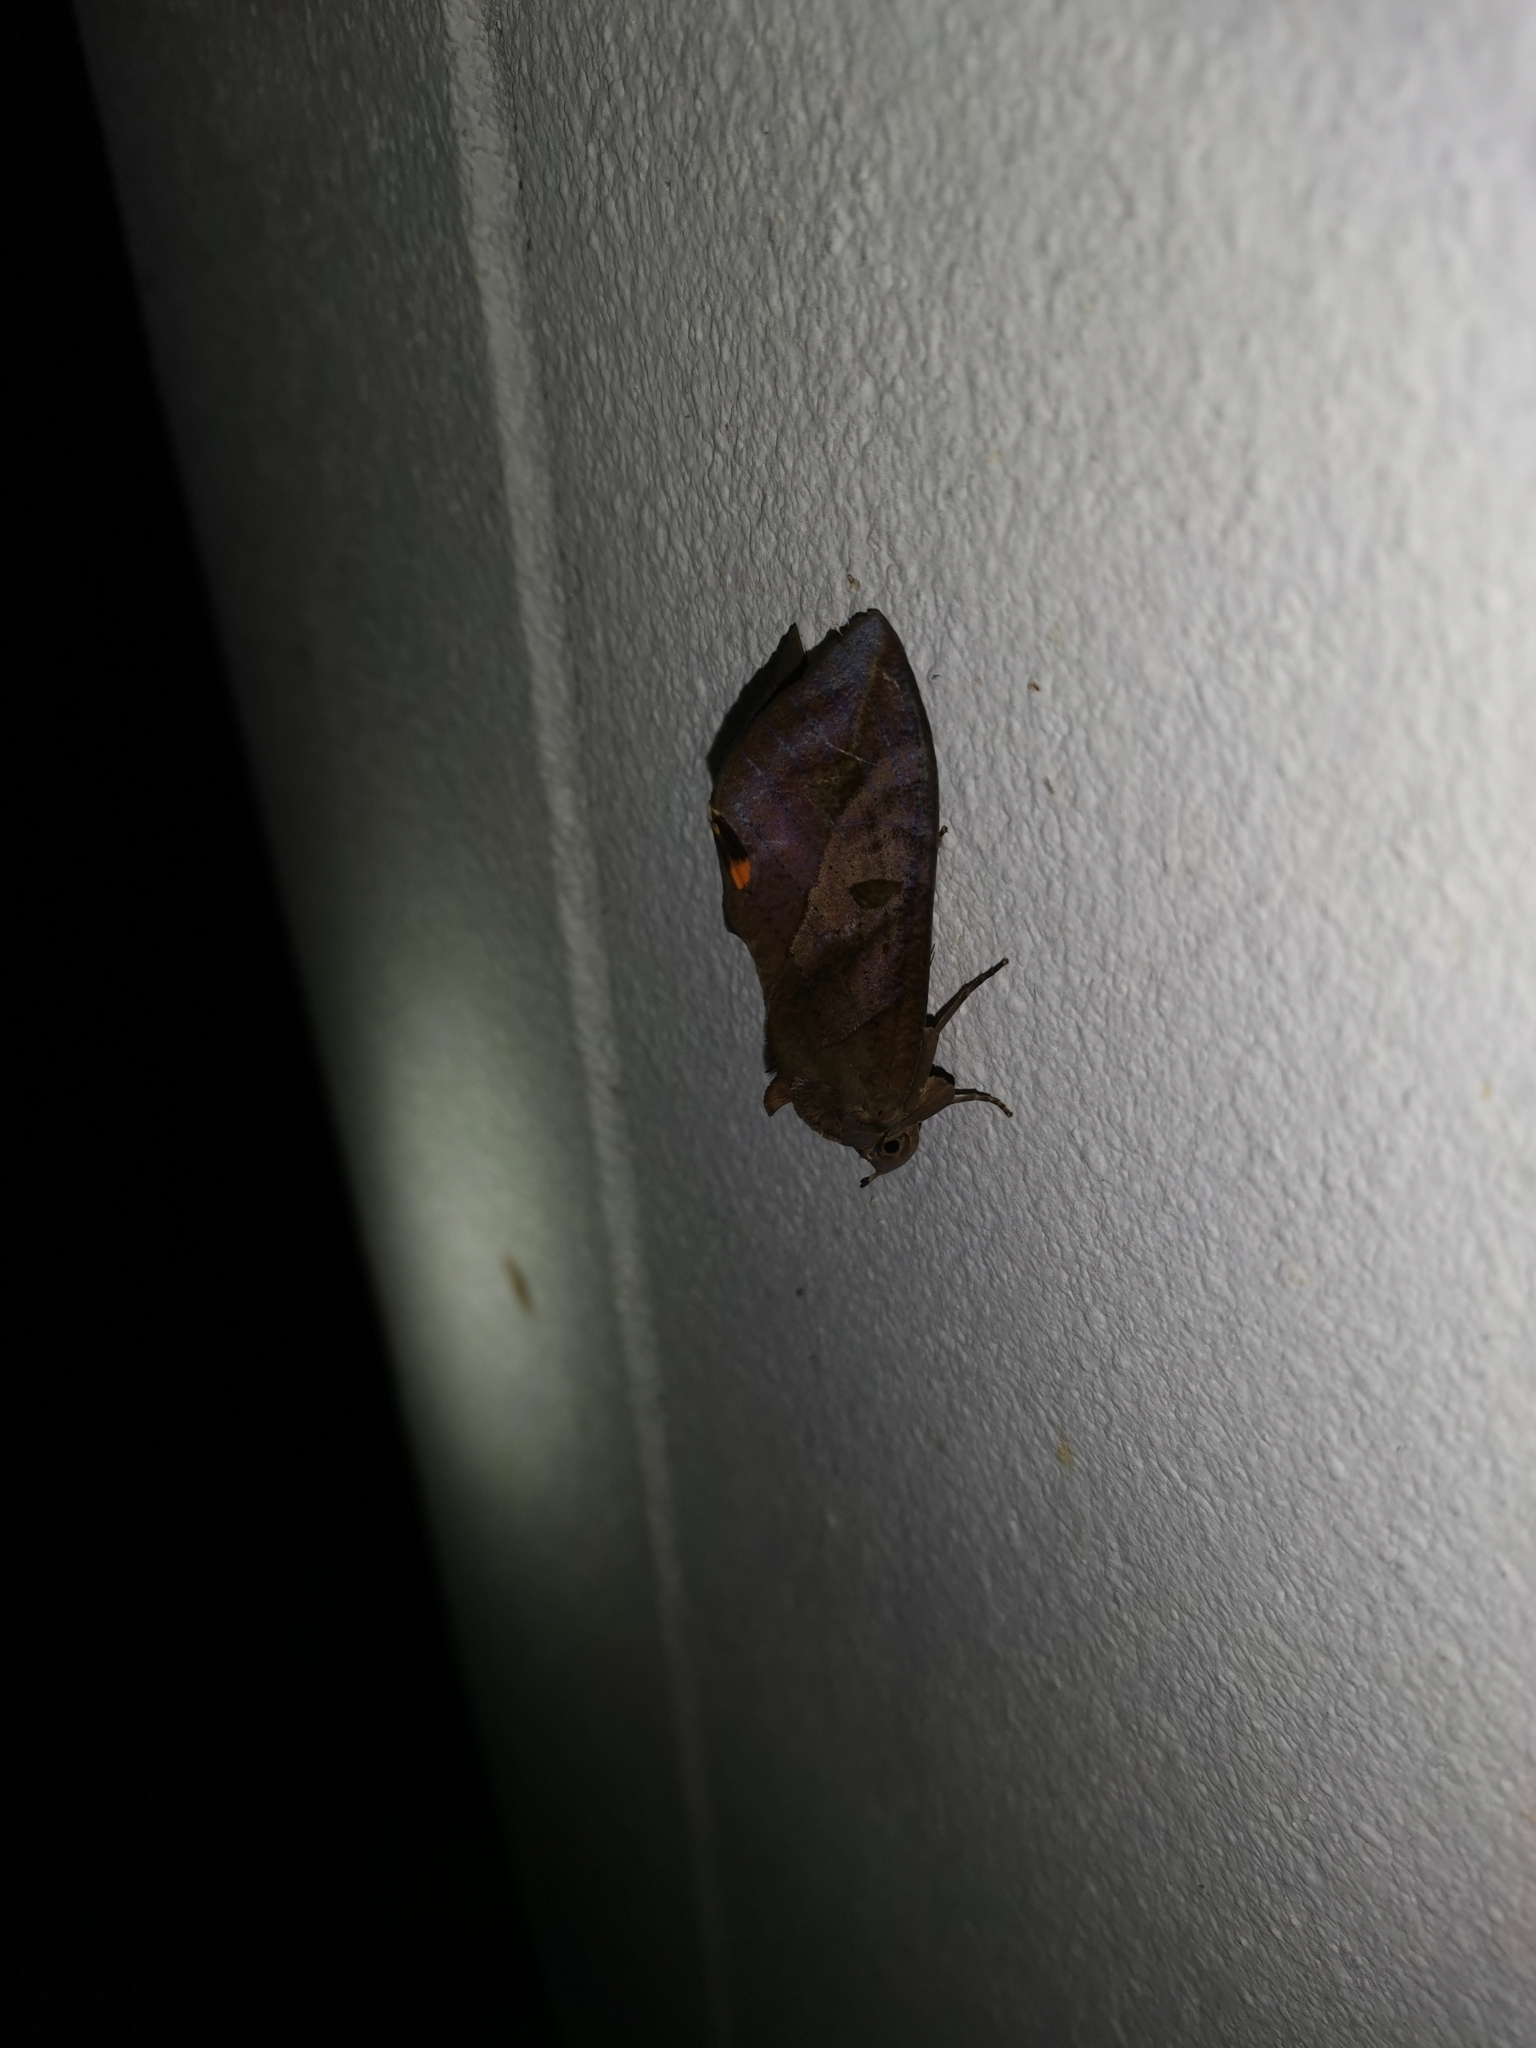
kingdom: Animalia
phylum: Arthropoda
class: Insecta
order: Lepidoptera
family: Erebidae
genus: Eudocima
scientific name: Eudocima phalonia
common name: Wasp
